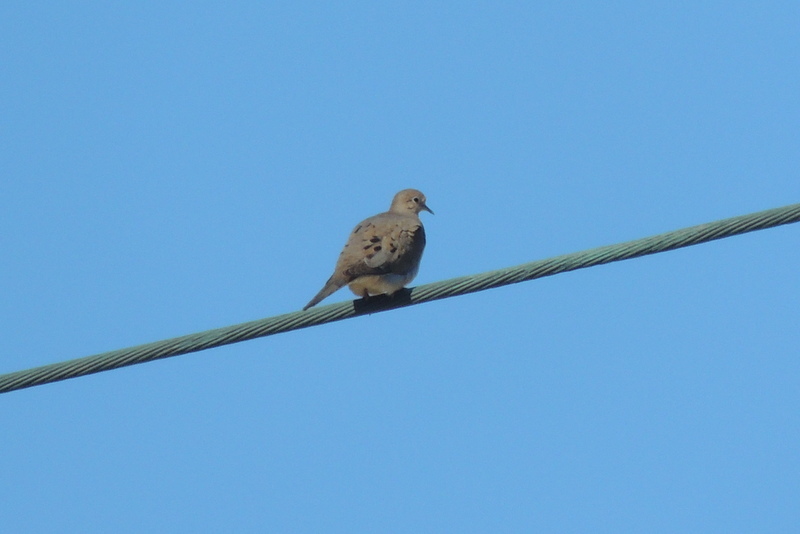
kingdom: Animalia
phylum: Chordata
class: Aves
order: Columbiformes
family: Columbidae
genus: Zenaida
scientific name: Zenaida macroura
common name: Mourning dove
